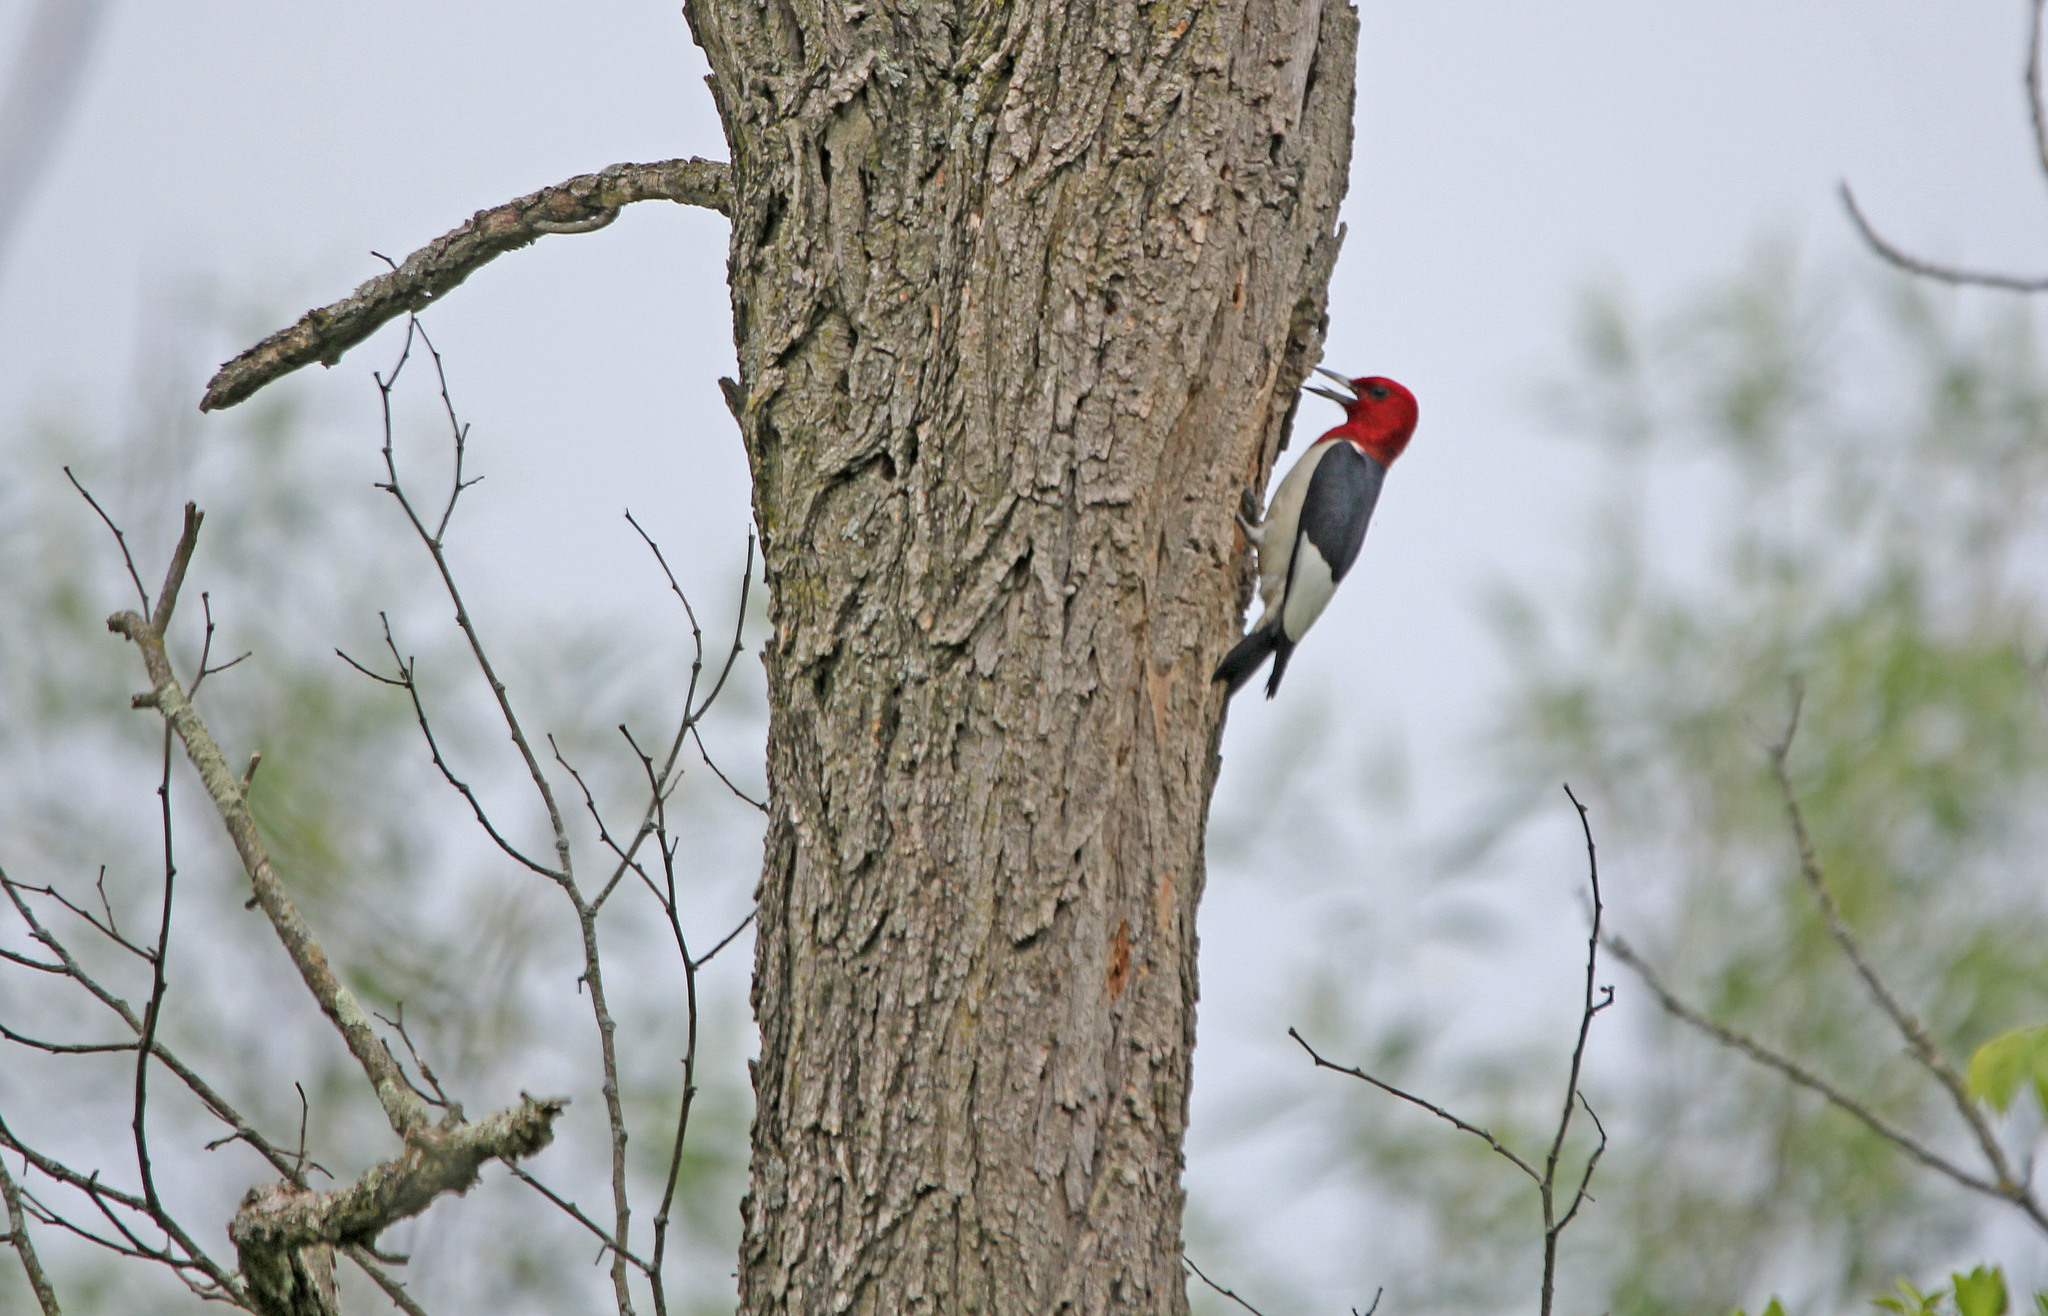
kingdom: Animalia
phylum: Chordata
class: Aves
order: Piciformes
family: Picidae
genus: Melanerpes
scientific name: Melanerpes erythrocephalus
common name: Red-headed woodpecker
